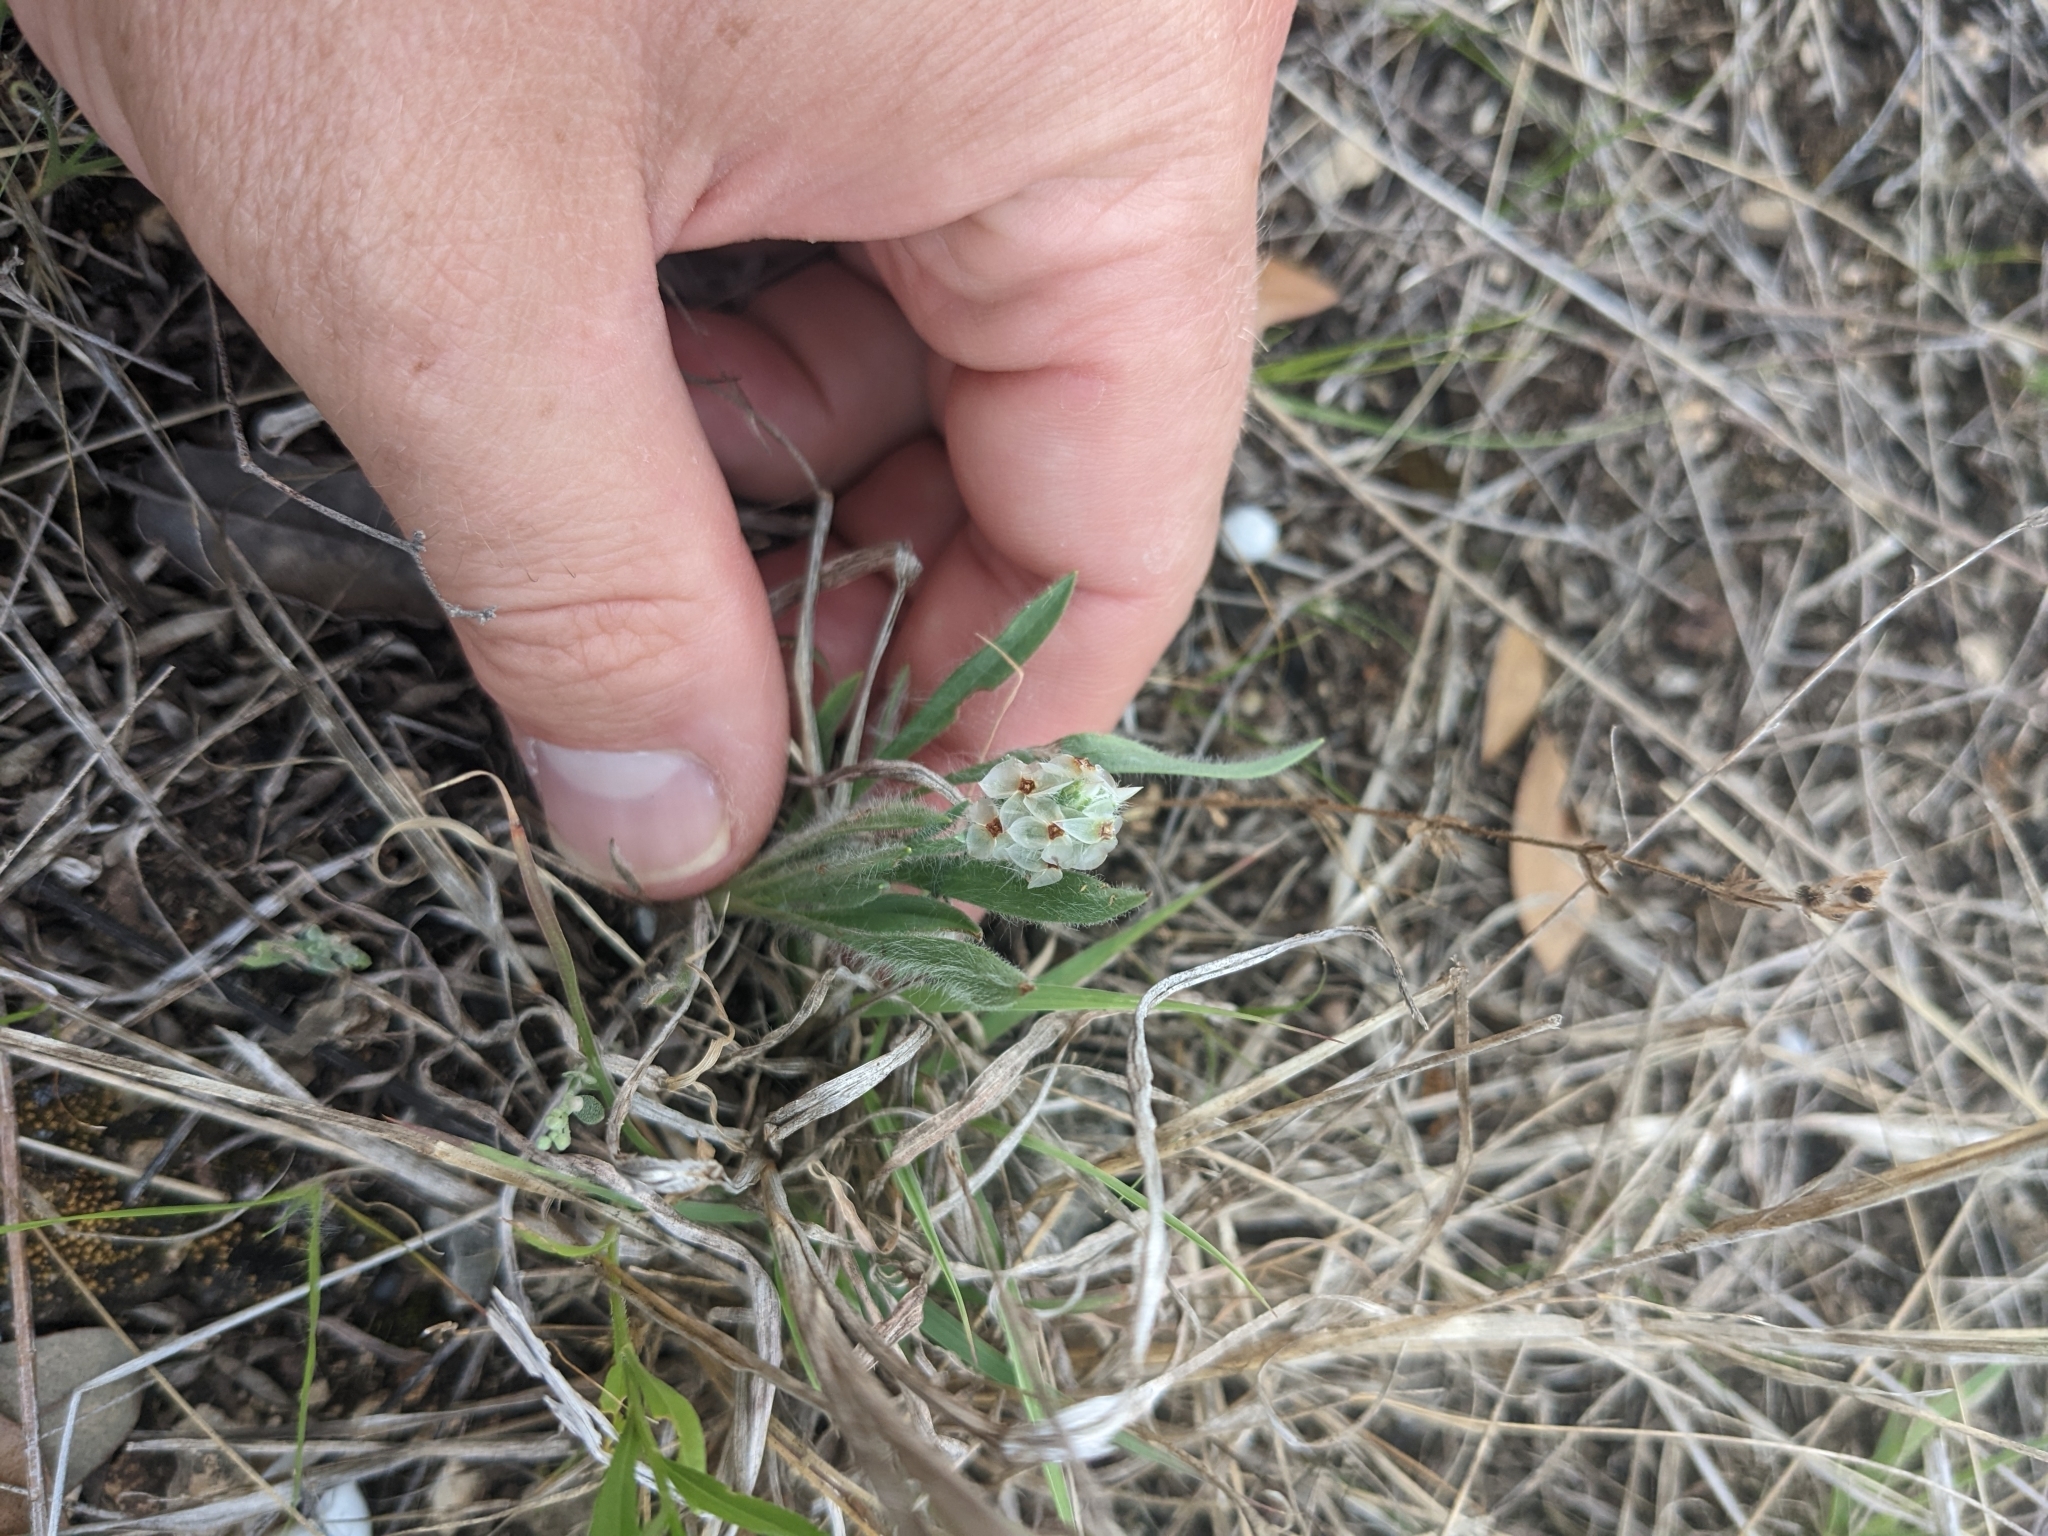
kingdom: Plantae
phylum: Tracheophyta
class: Magnoliopsida
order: Lamiales
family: Plantaginaceae
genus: Plantago
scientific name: Plantago helleri
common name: Heller's plantain
